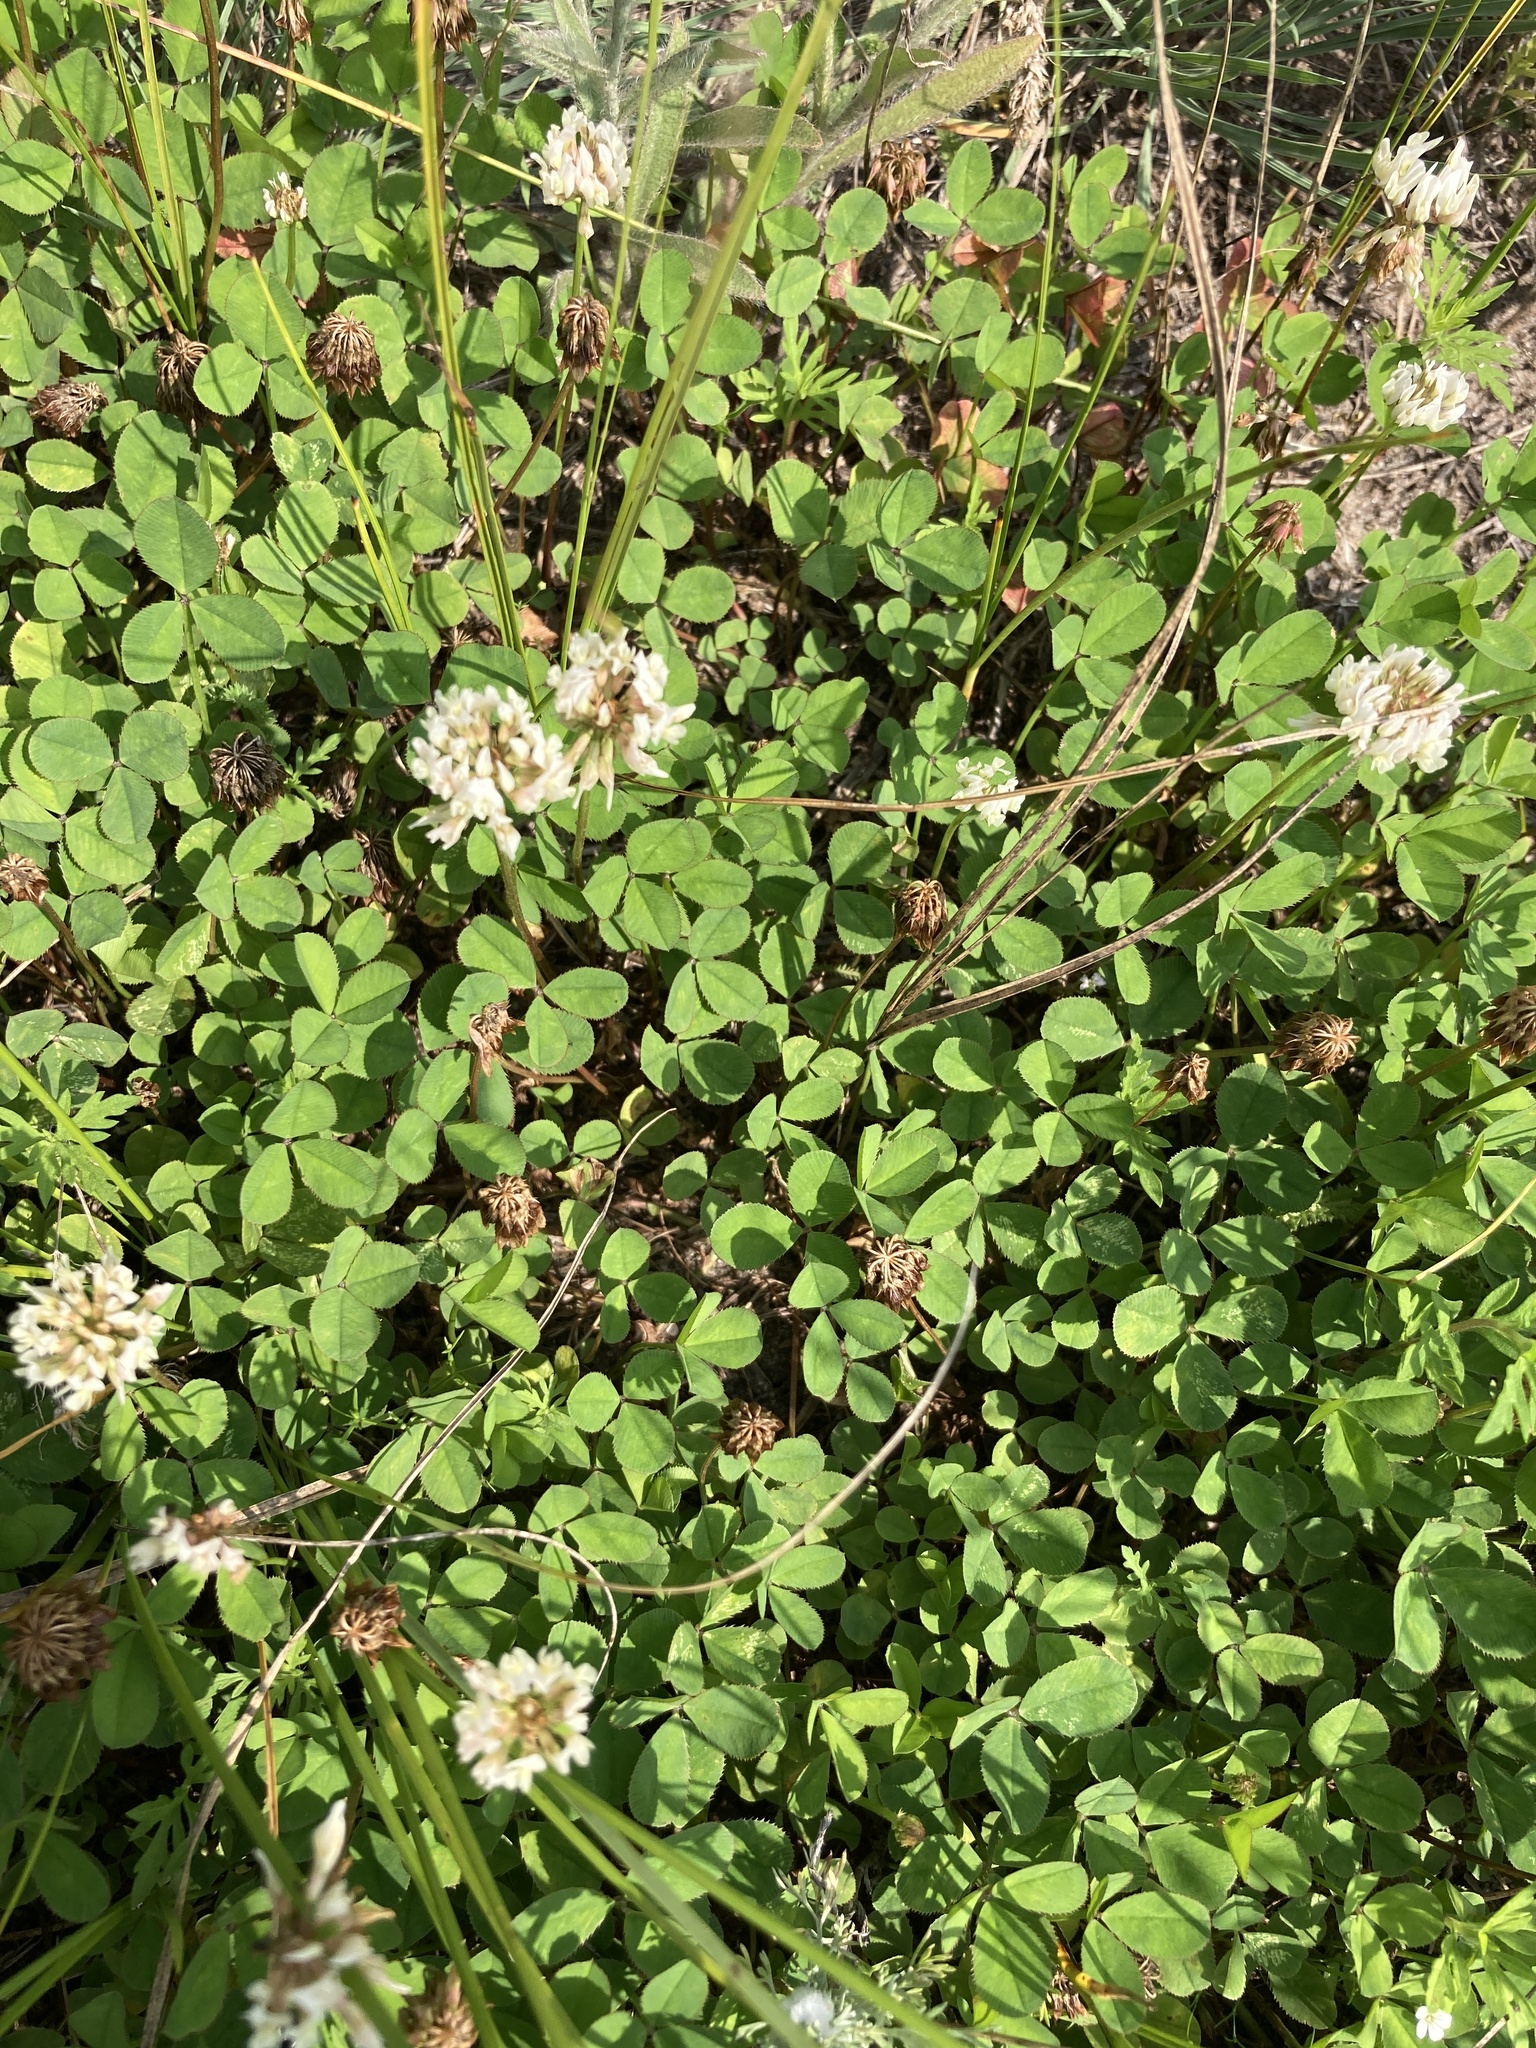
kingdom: Plantae
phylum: Tracheophyta
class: Magnoliopsida
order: Fabales
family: Fabaceae
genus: Trifolium
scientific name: Trifolium repens
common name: White clover
